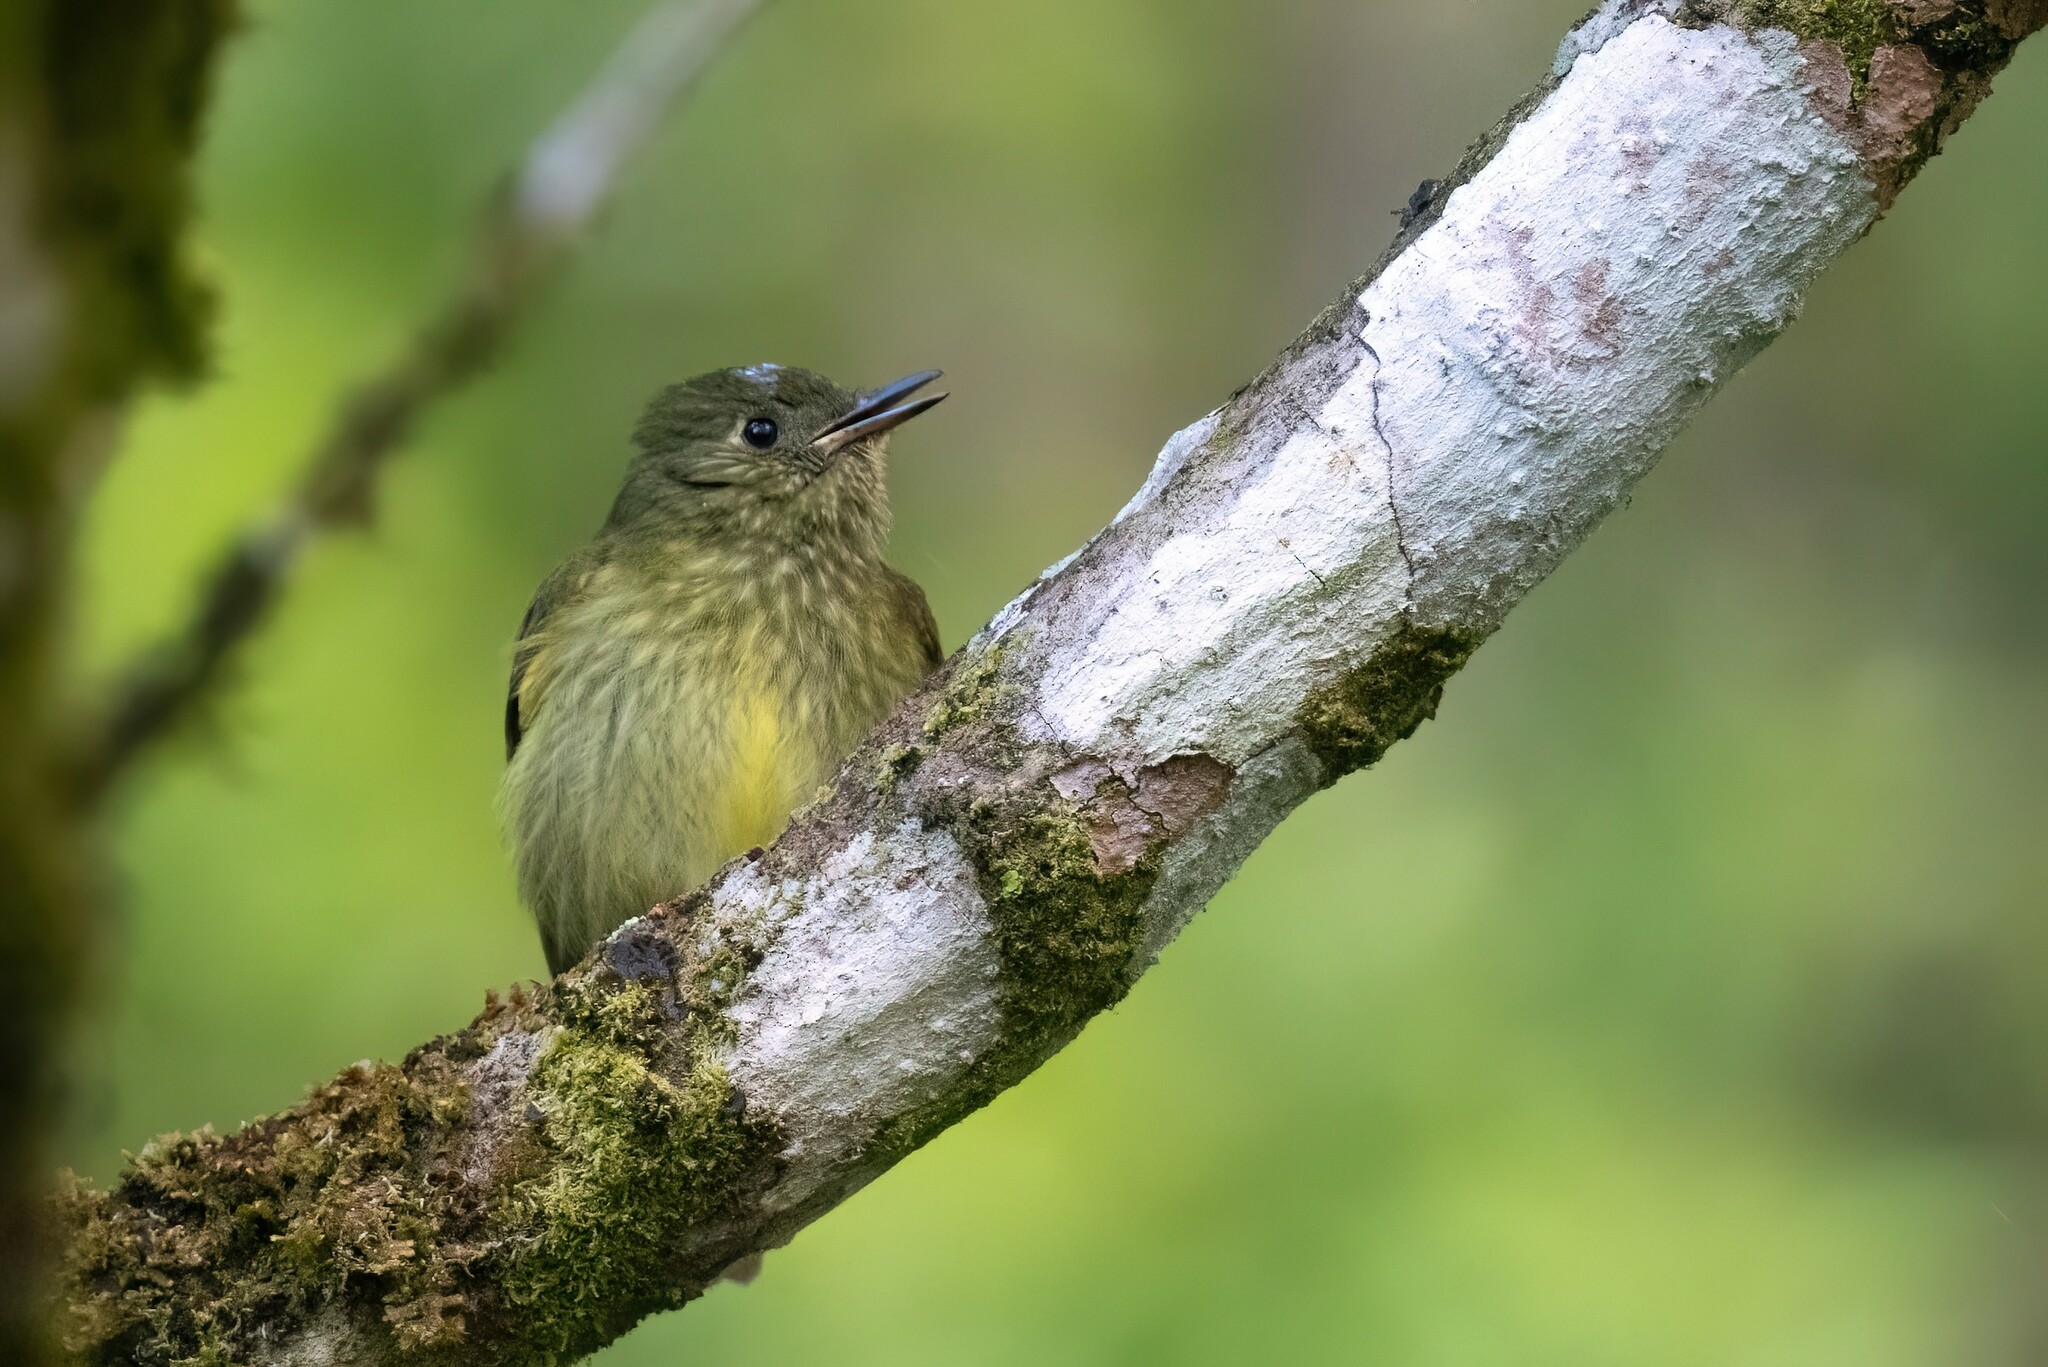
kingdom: Animalia
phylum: Chordata
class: Aves
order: Passeriformes
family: Tyrannidae
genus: Mionectes
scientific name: Mionectes olivaceus
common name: Olive-striped flycatcher
